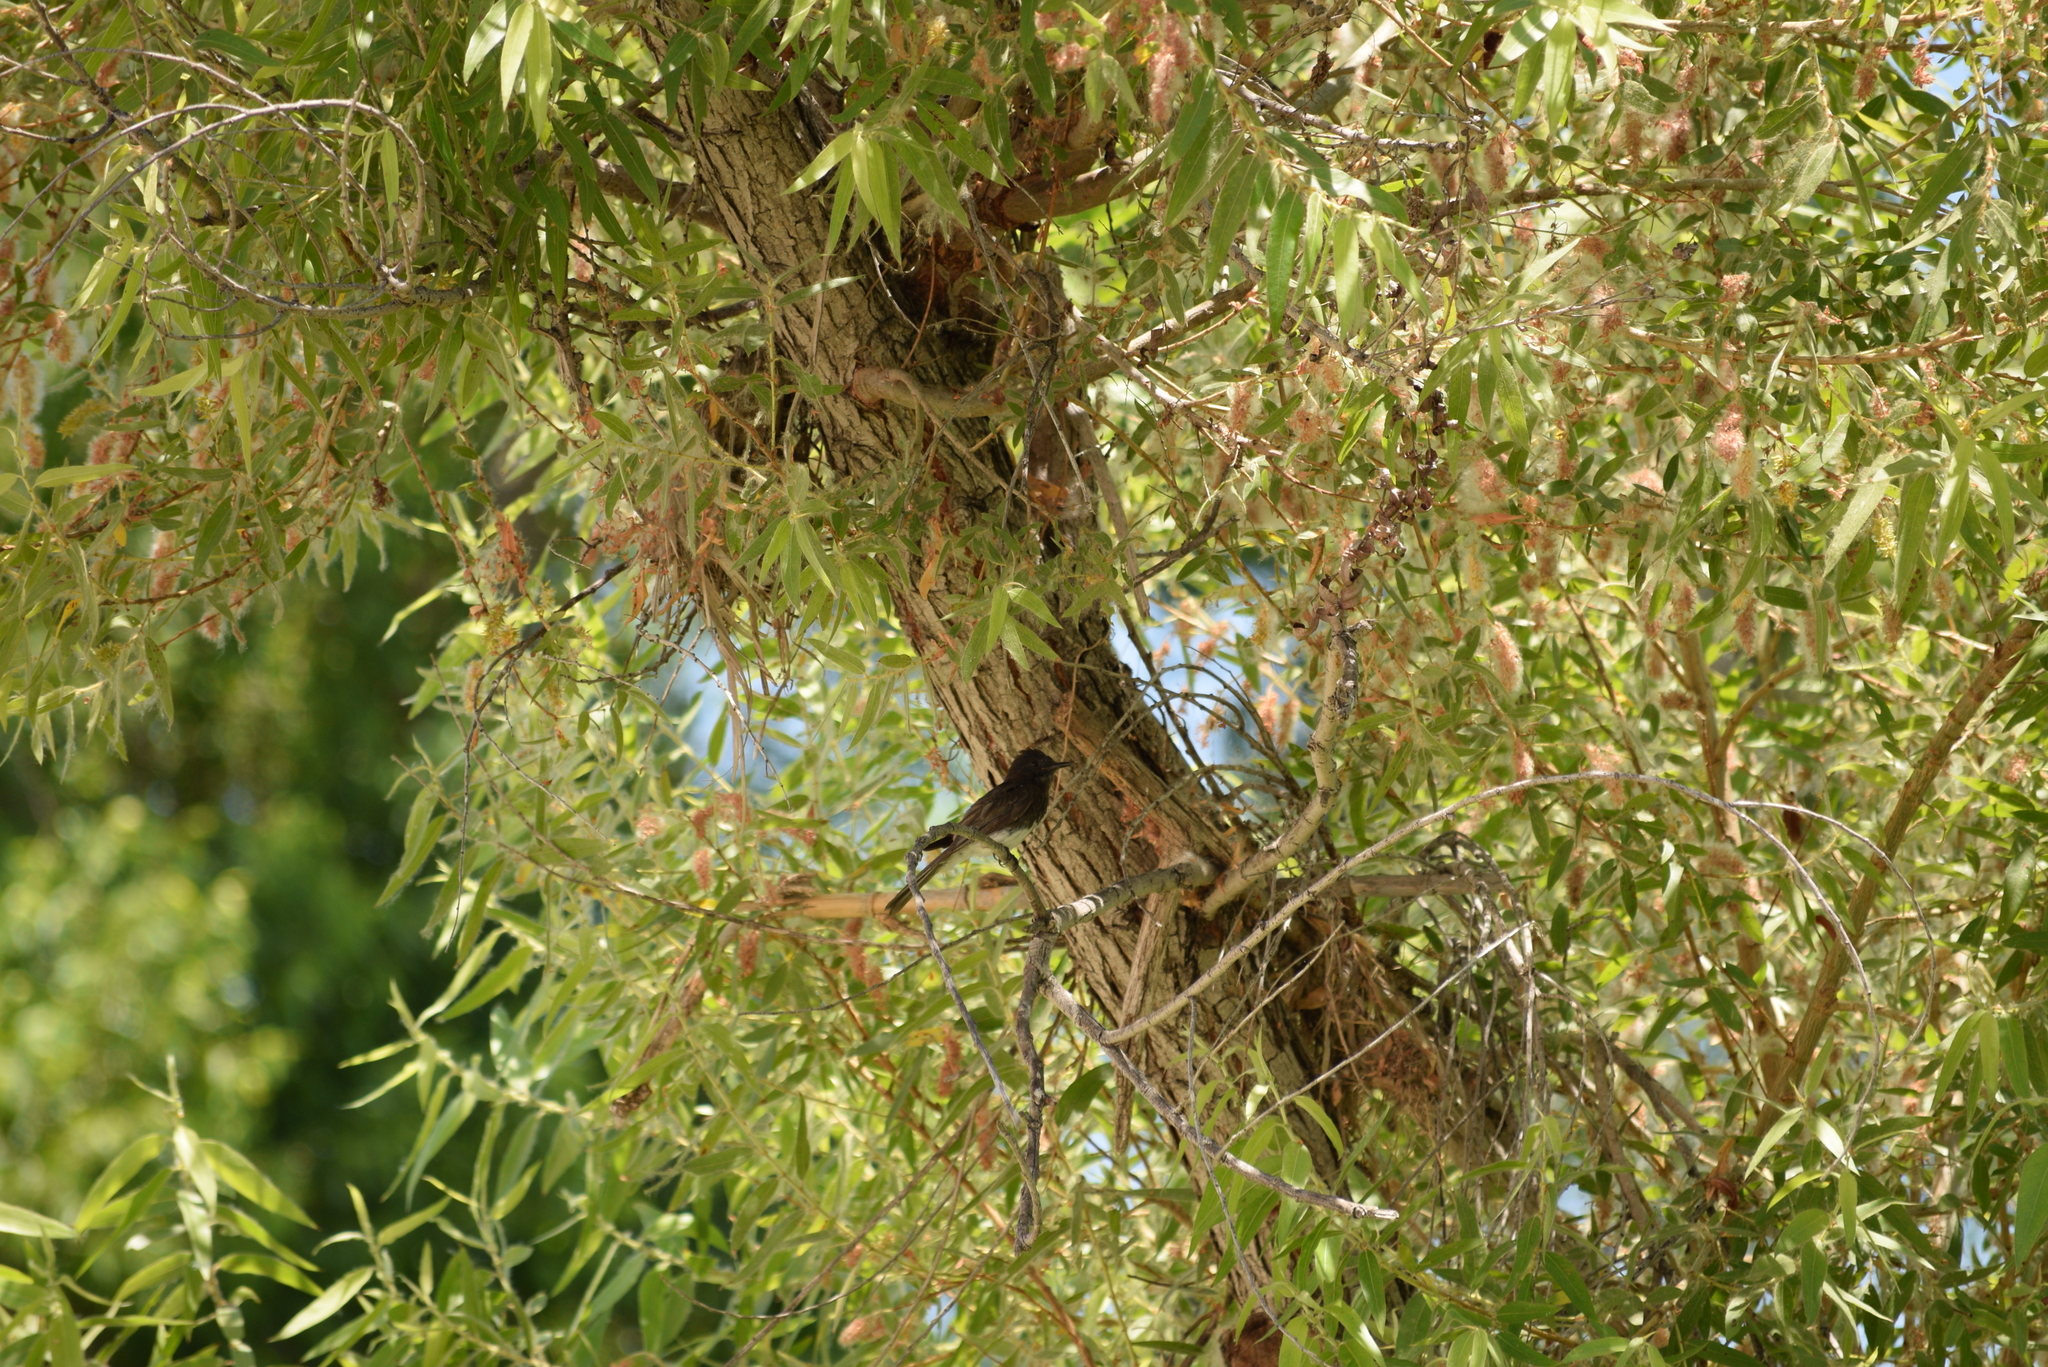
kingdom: Animalia
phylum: Chordata
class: Aves
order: Passeriformes
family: Tyrannidae
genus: Sayornis
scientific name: Sayornis nigricans
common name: Black phoebe
